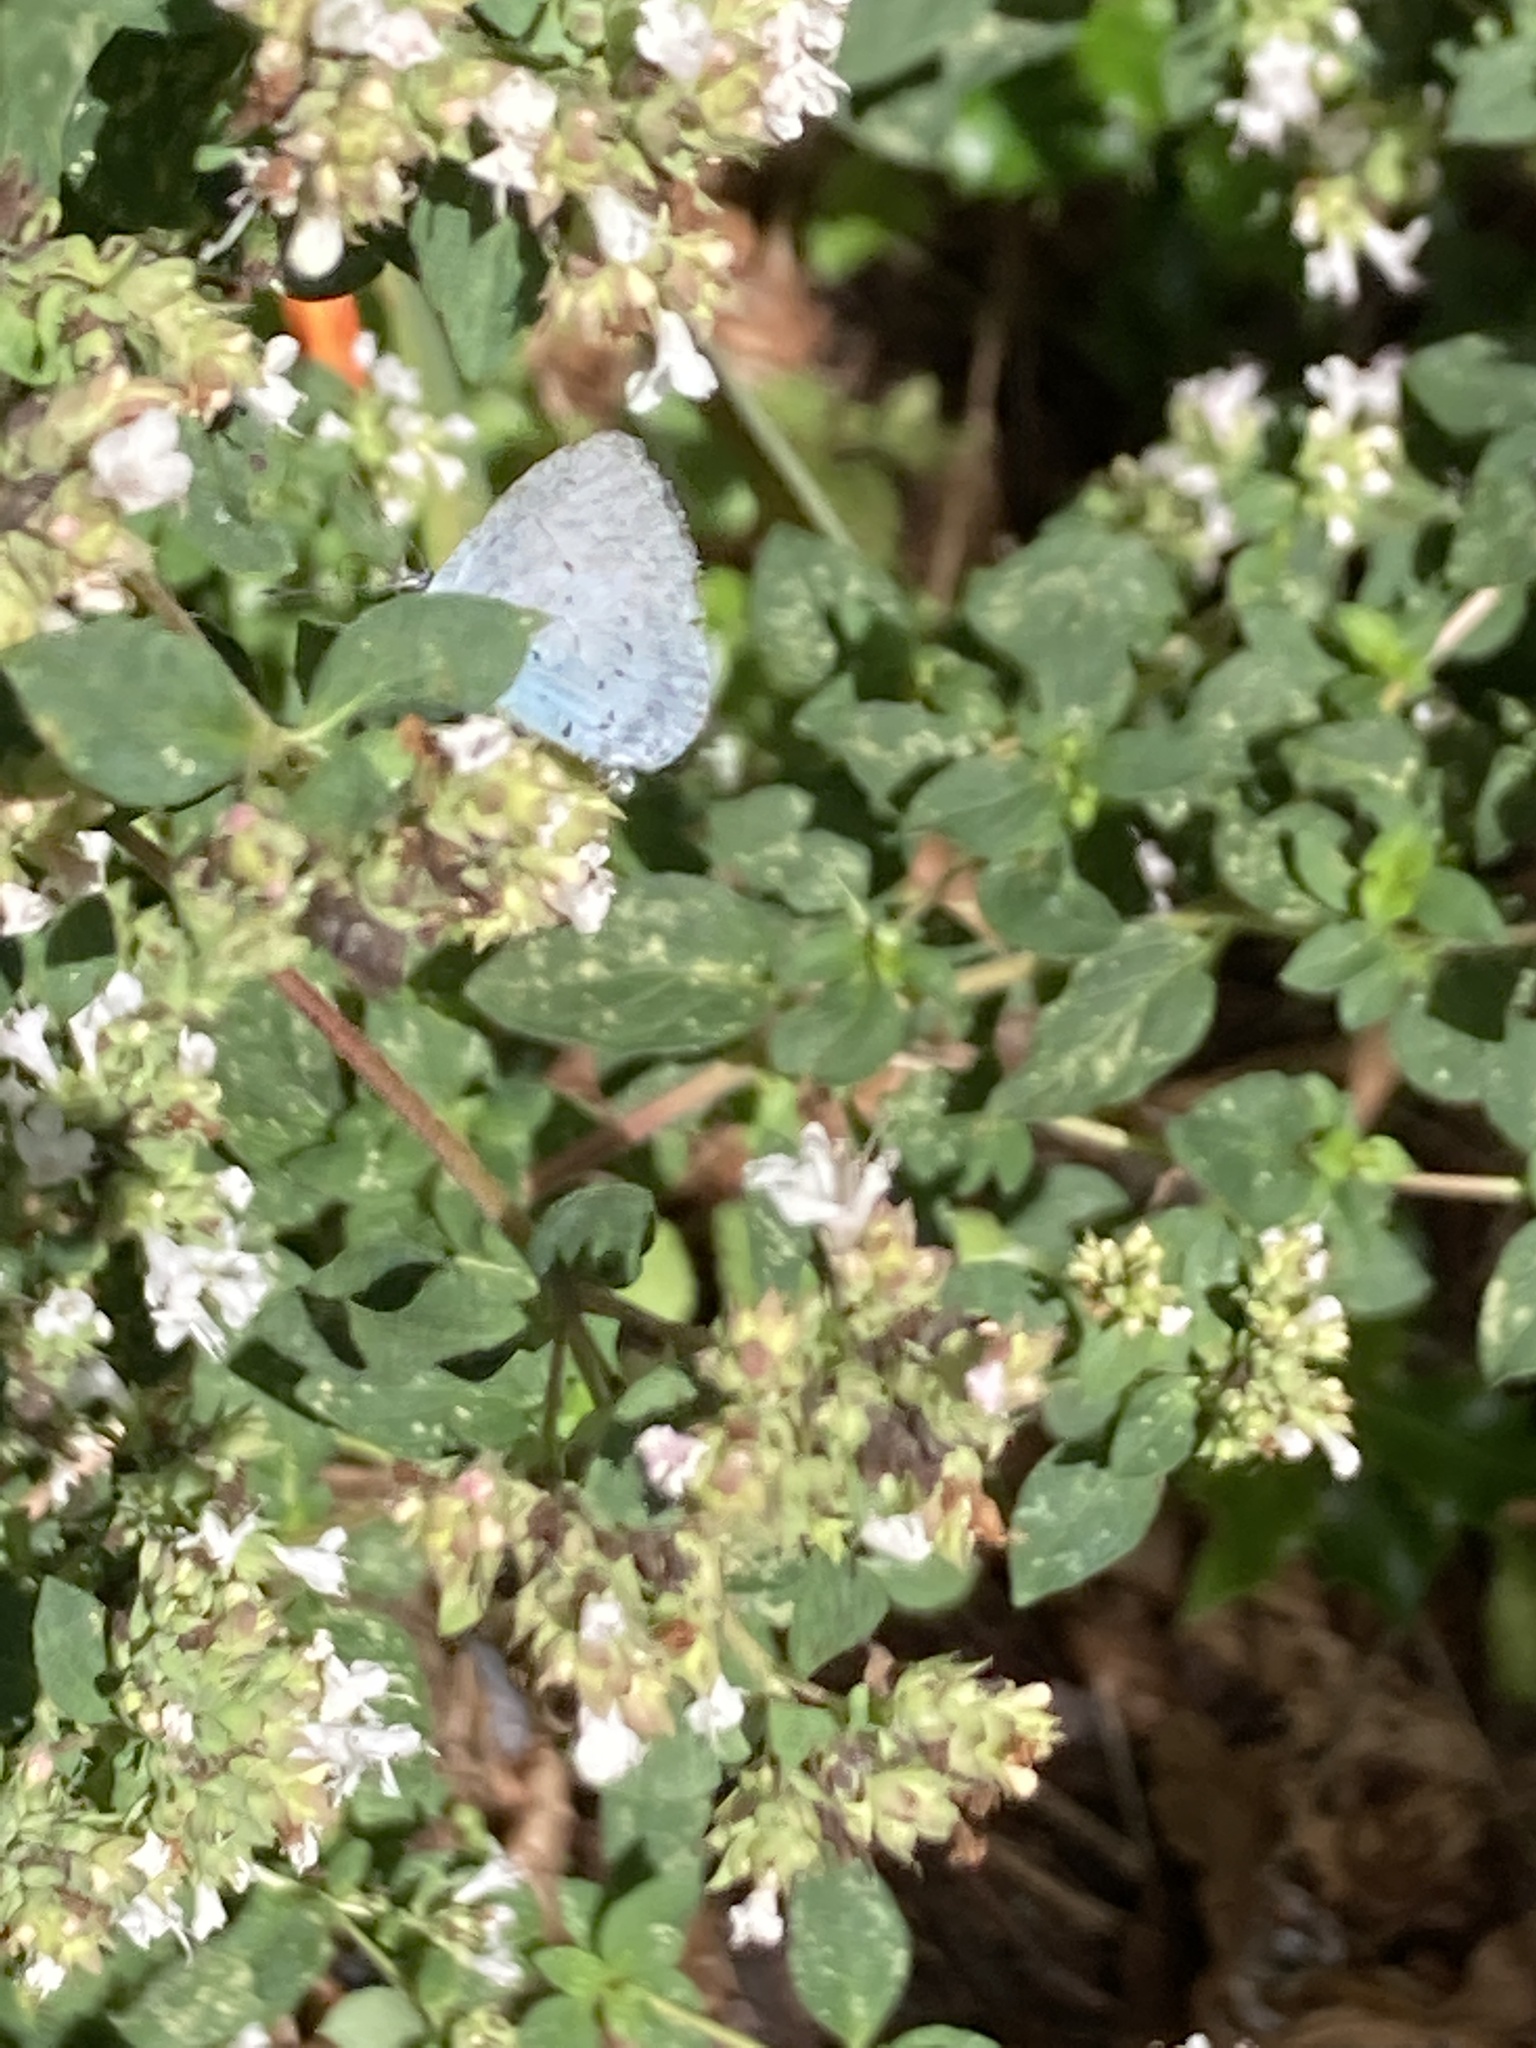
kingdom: Animalia
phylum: Arthropoda
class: Insecta
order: Lepidoptera
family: Lycaenidae
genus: Celastrina
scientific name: Celastrina argiolus
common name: Holly blue
